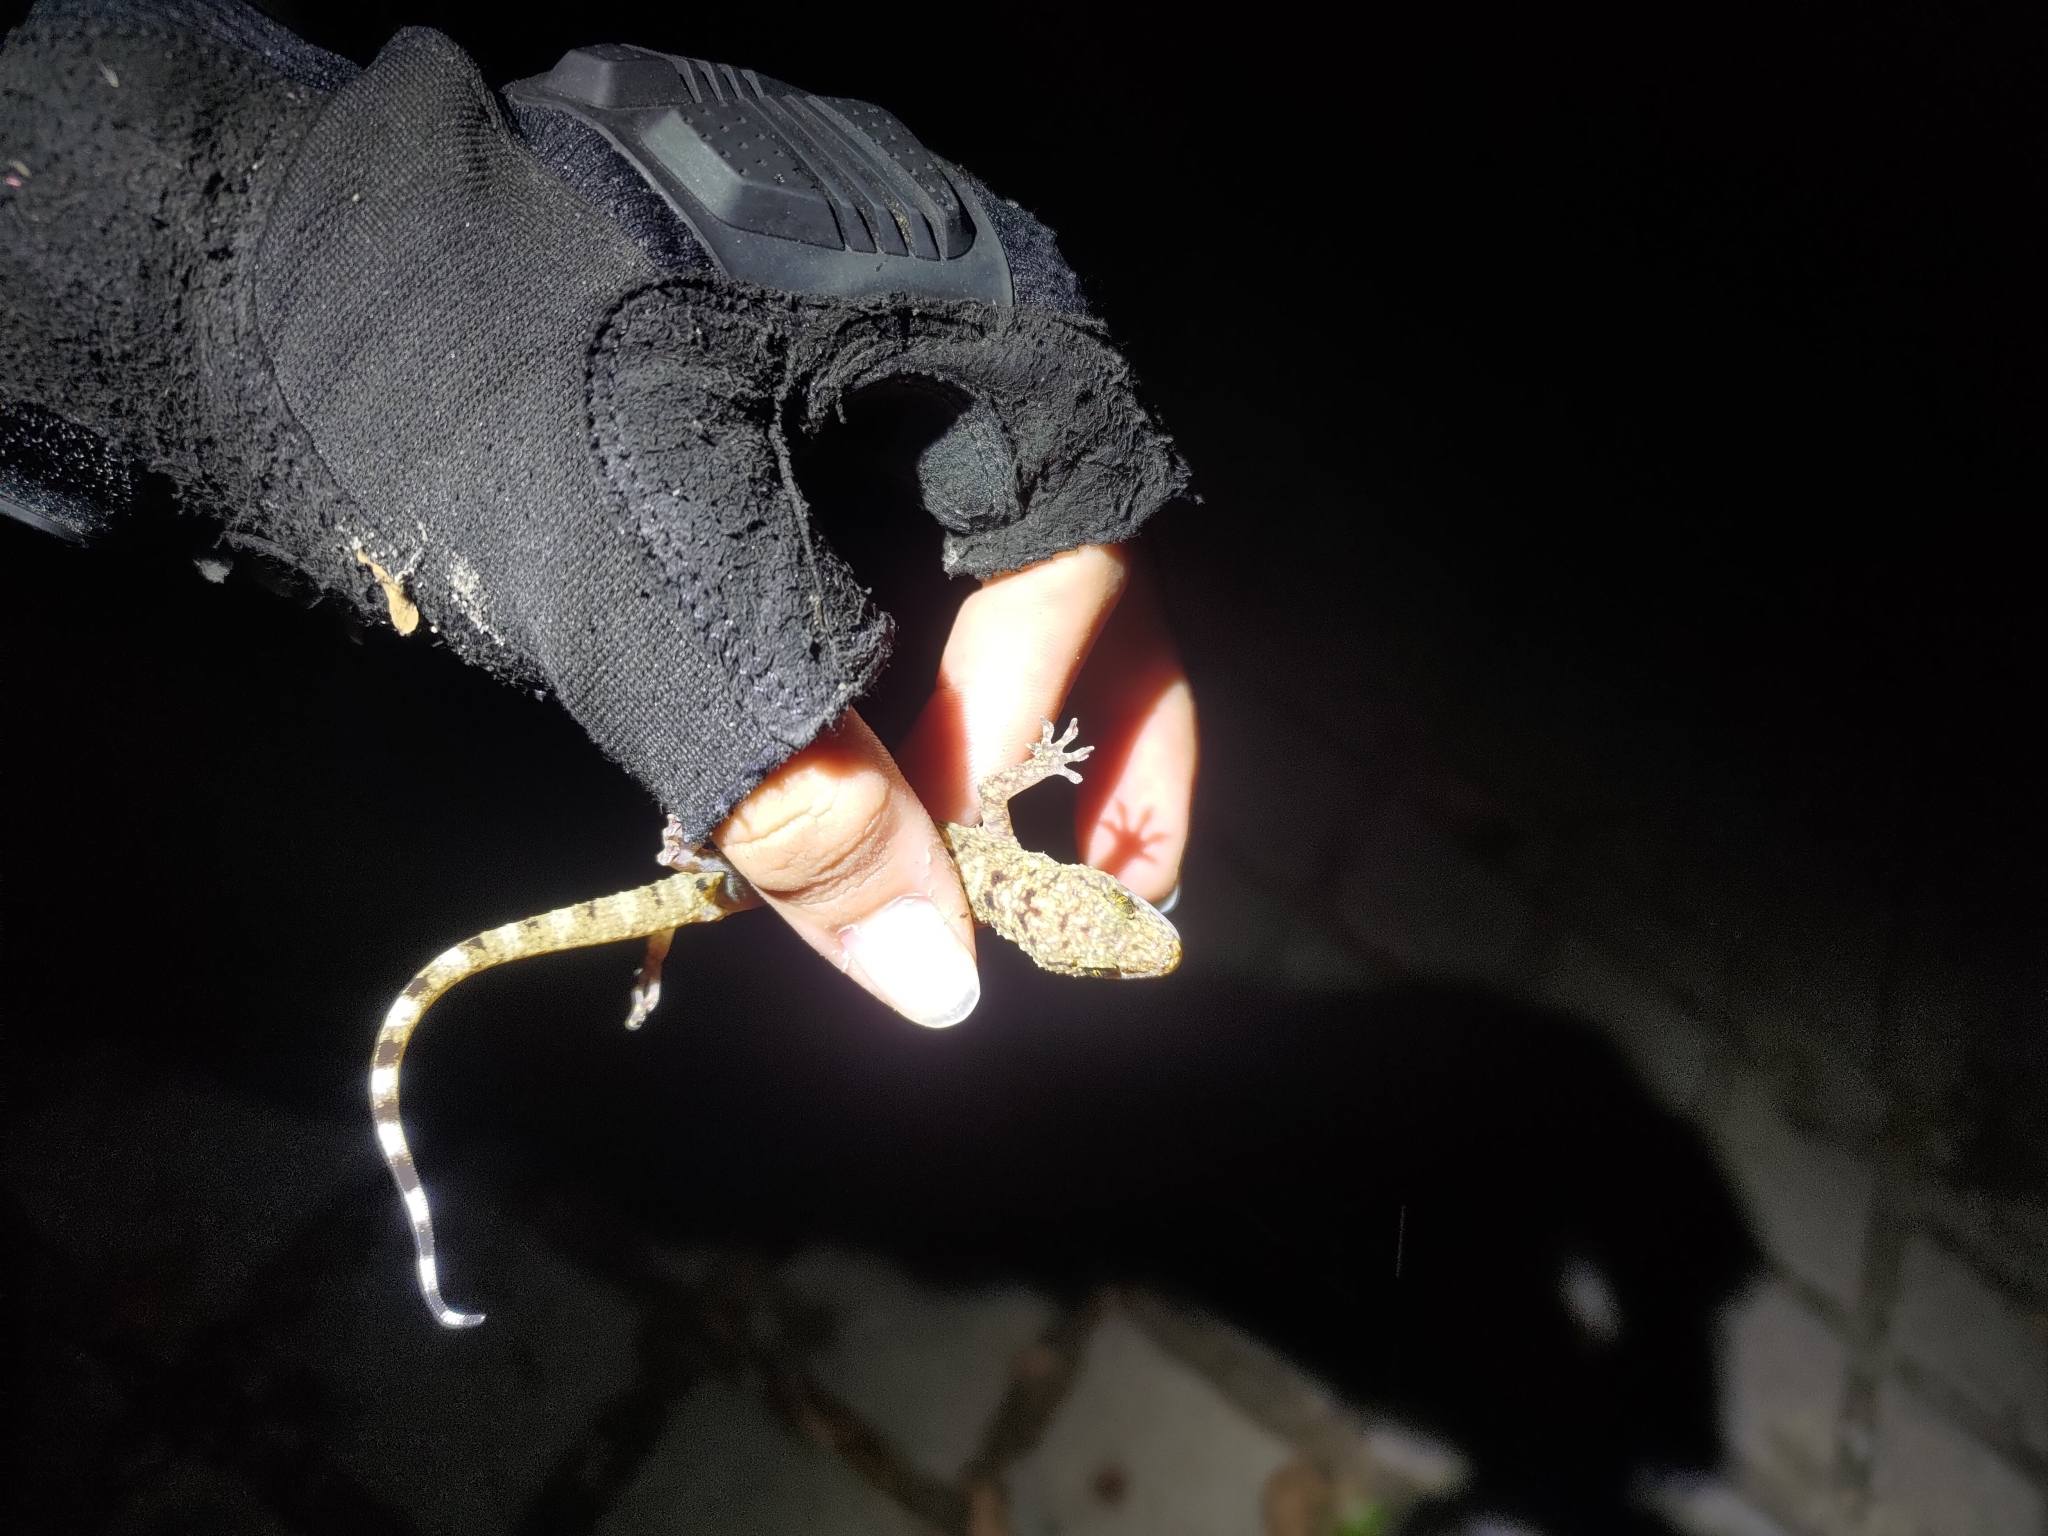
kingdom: Animalia
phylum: Chordata
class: Squamata
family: Gekkonidae
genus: Gekko
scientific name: Gekko monarchus
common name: Spotted house gecko
